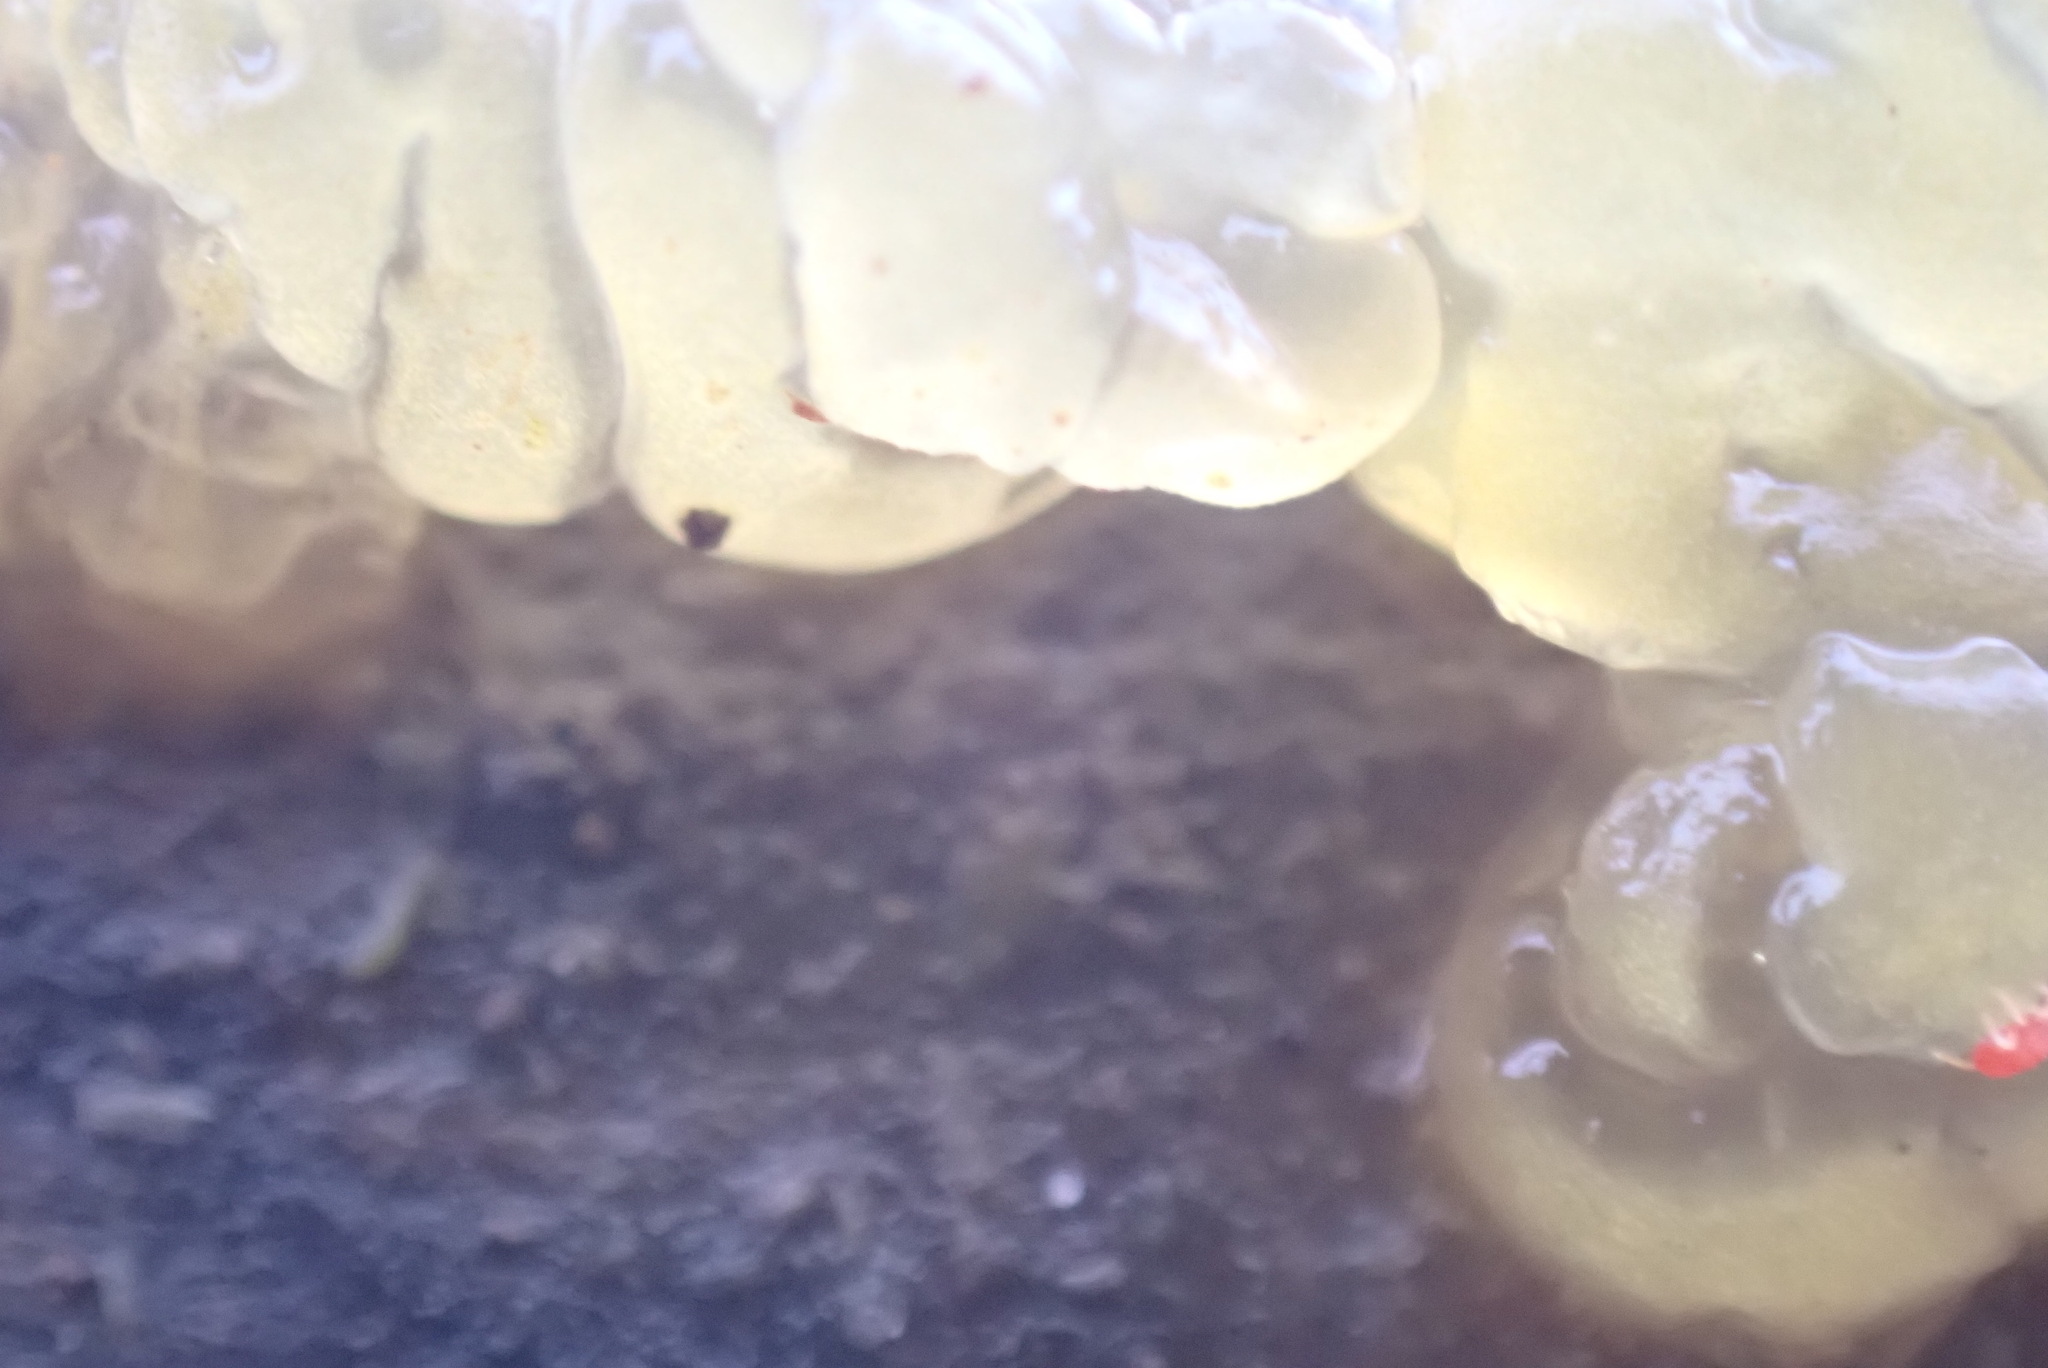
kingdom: Fungi
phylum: Basidiomycota
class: Agaricomycetes
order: Auriculariales
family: Hyaloriaceae
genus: Myxarium
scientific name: Myxarium nucleatum
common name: Crystal brain fungus
